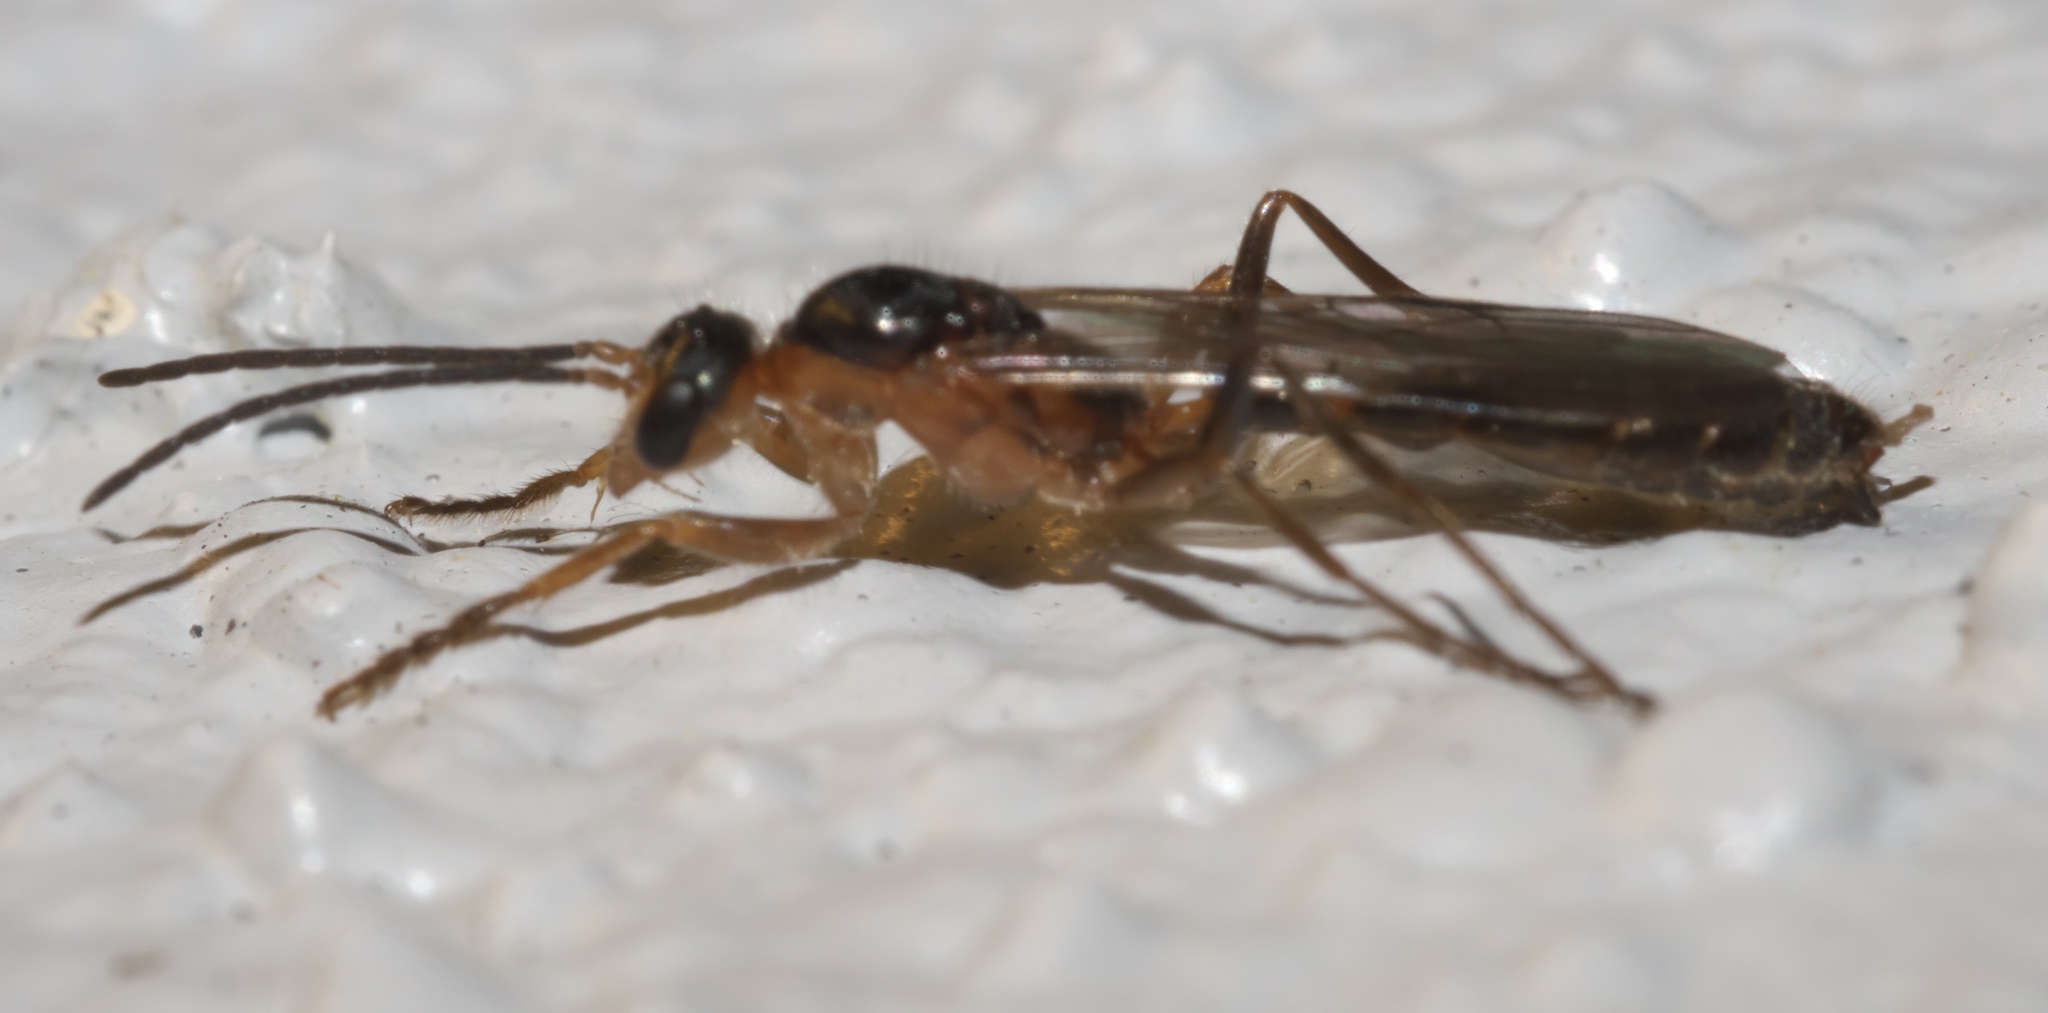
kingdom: Animalia
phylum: Arthropoda
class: Insecta
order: Hymenoptera
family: Formicidae
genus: Pseudomyrmex
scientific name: Pseudomyrmex gracilis
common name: Graceful twig ant
